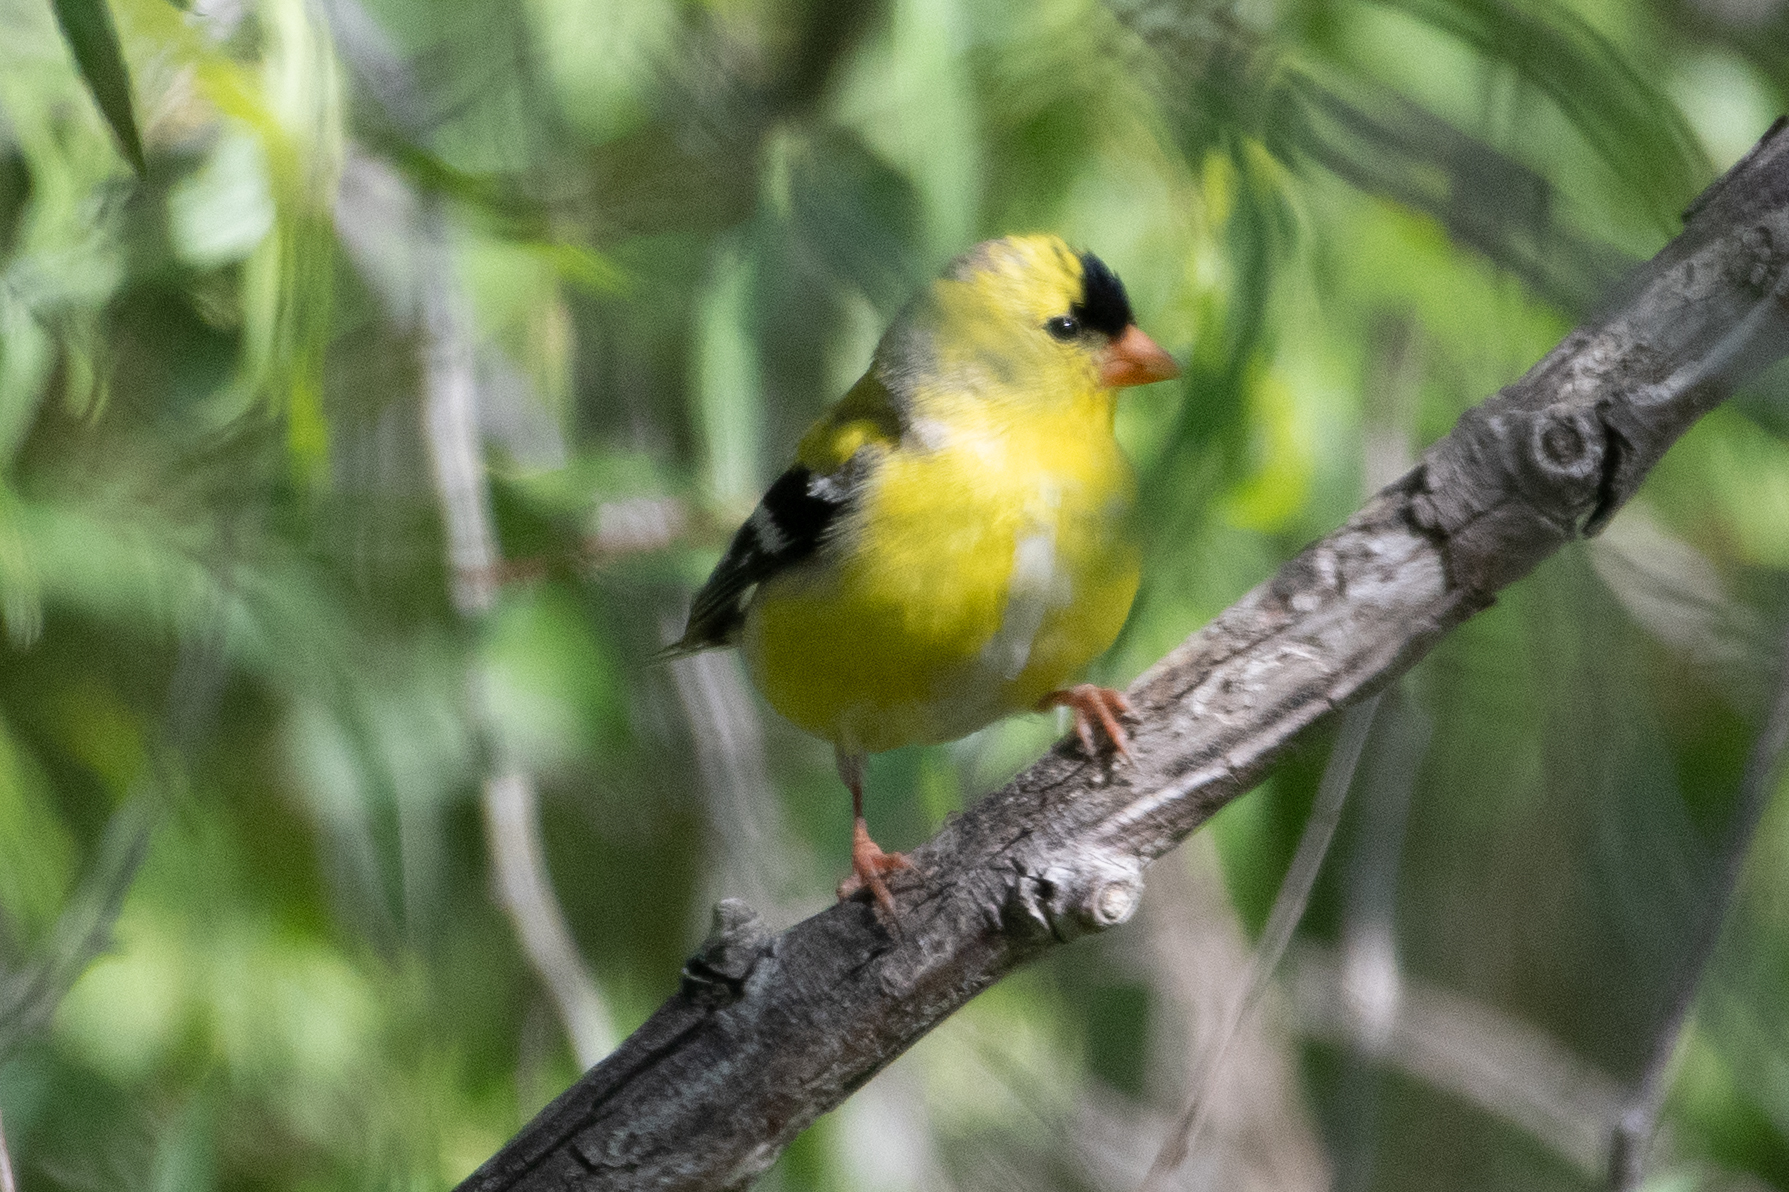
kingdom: Animalia
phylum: Chordata
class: Aves
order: Passeriformes
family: Fringillidae
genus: Spinus
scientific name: Spinus tristis
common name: American goldfinch
